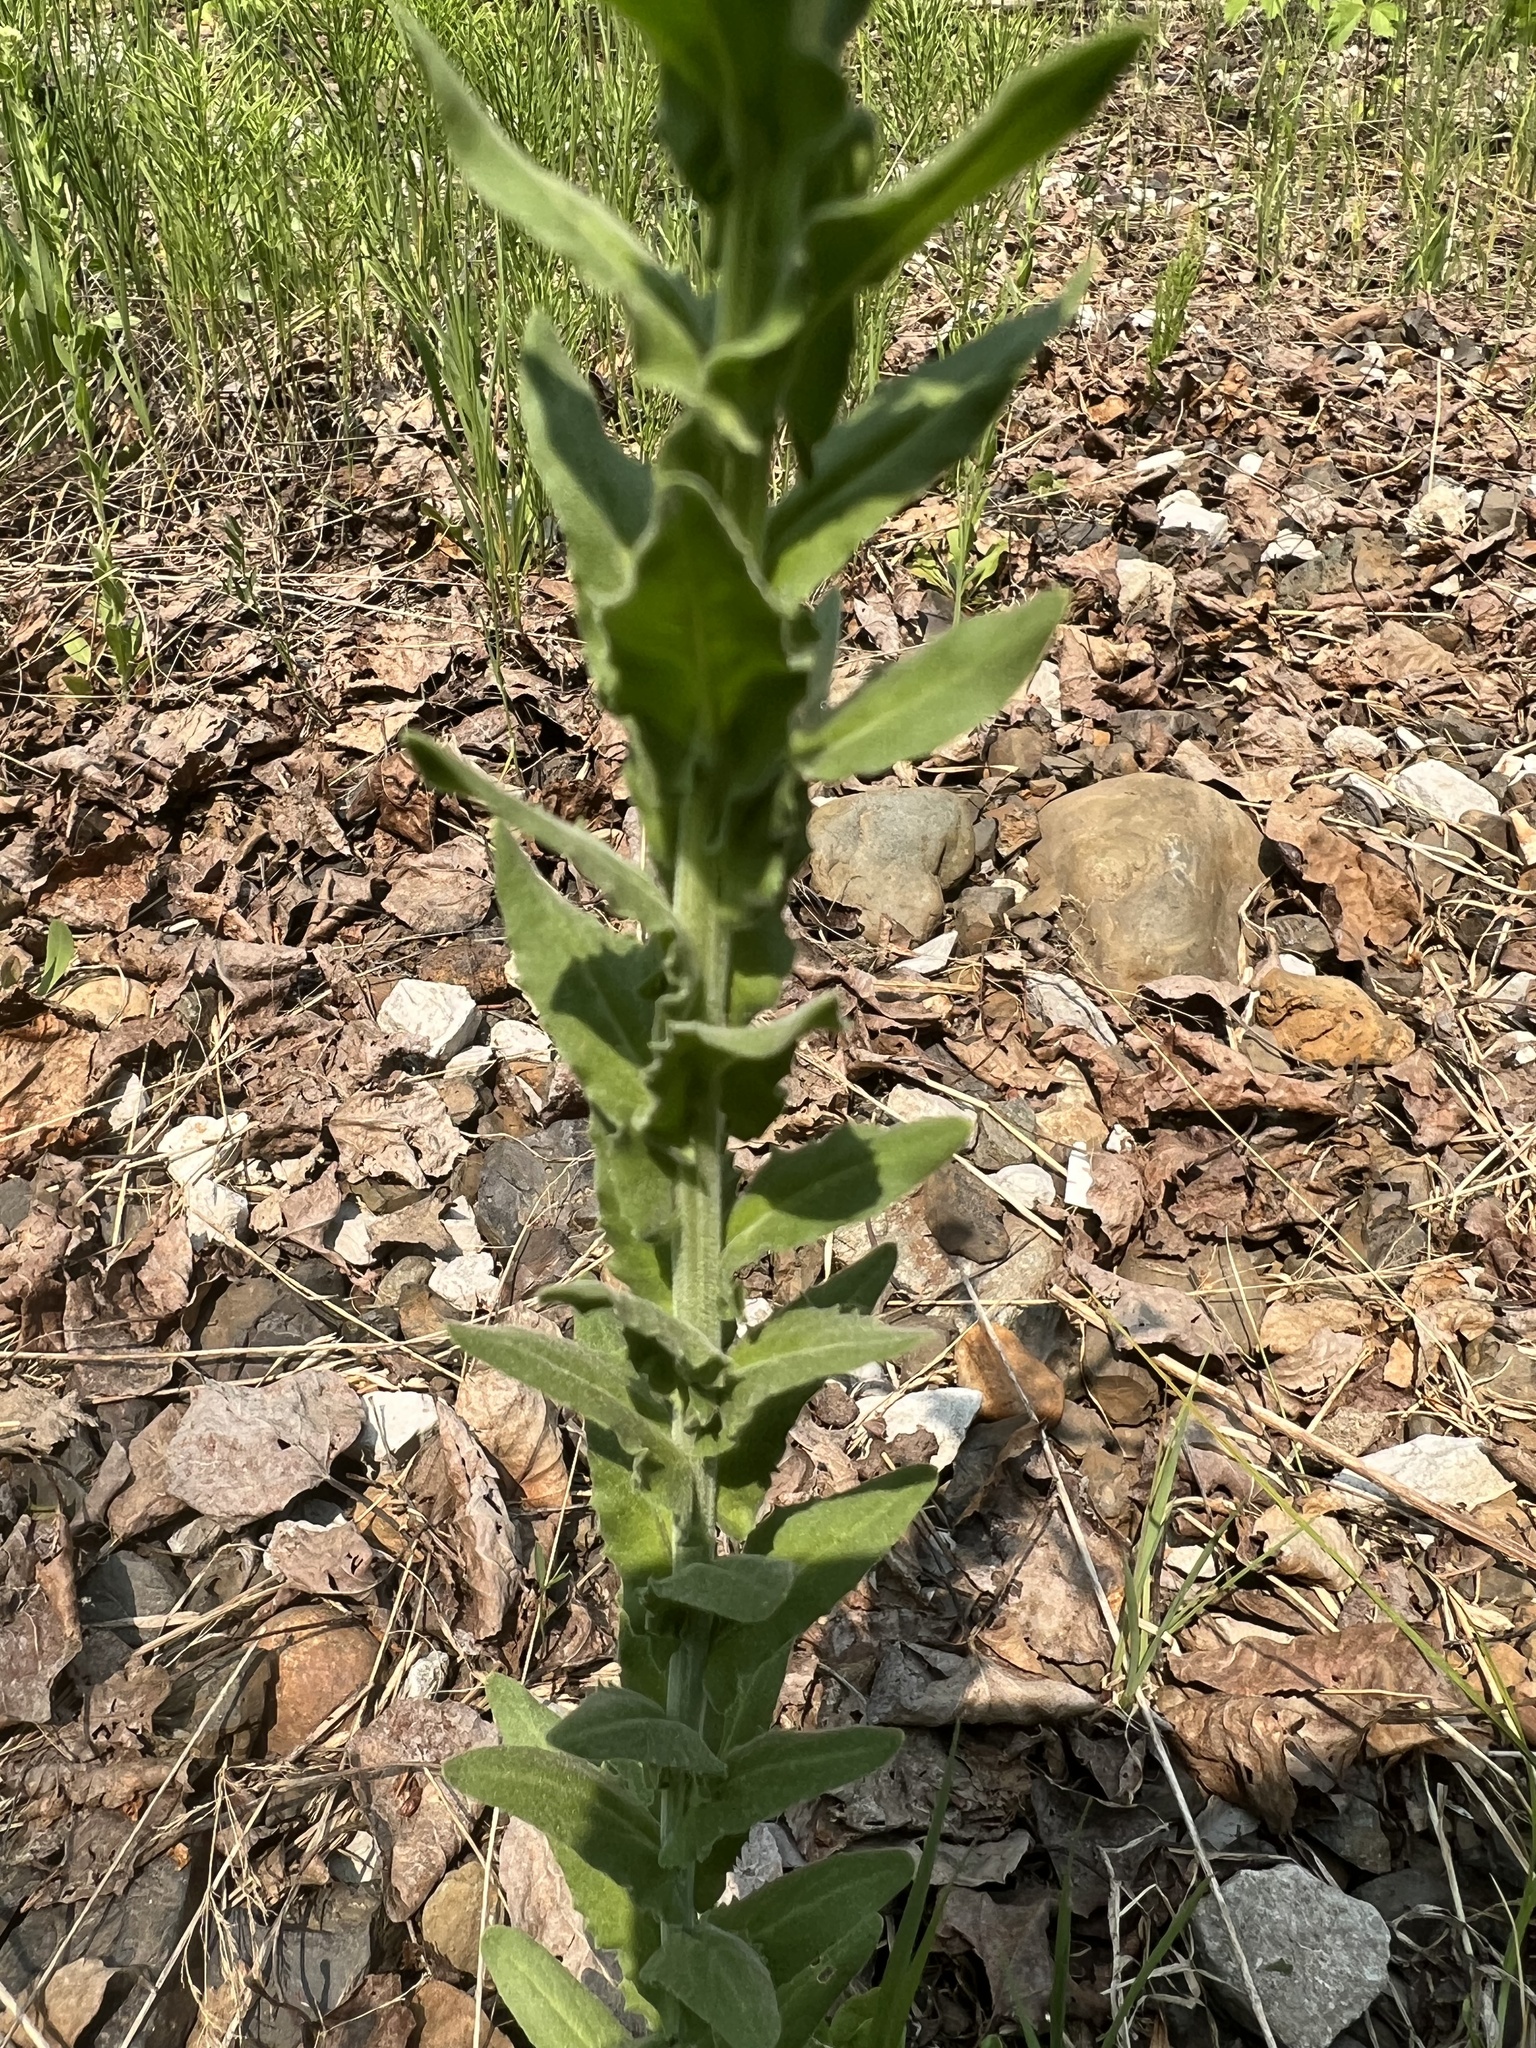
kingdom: Plantae
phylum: Tracheophyta
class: Magnoliopsida
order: Brassicales
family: Brassicaceae
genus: Lepidium
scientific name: Lepidium campestre
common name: Field pepperwort
